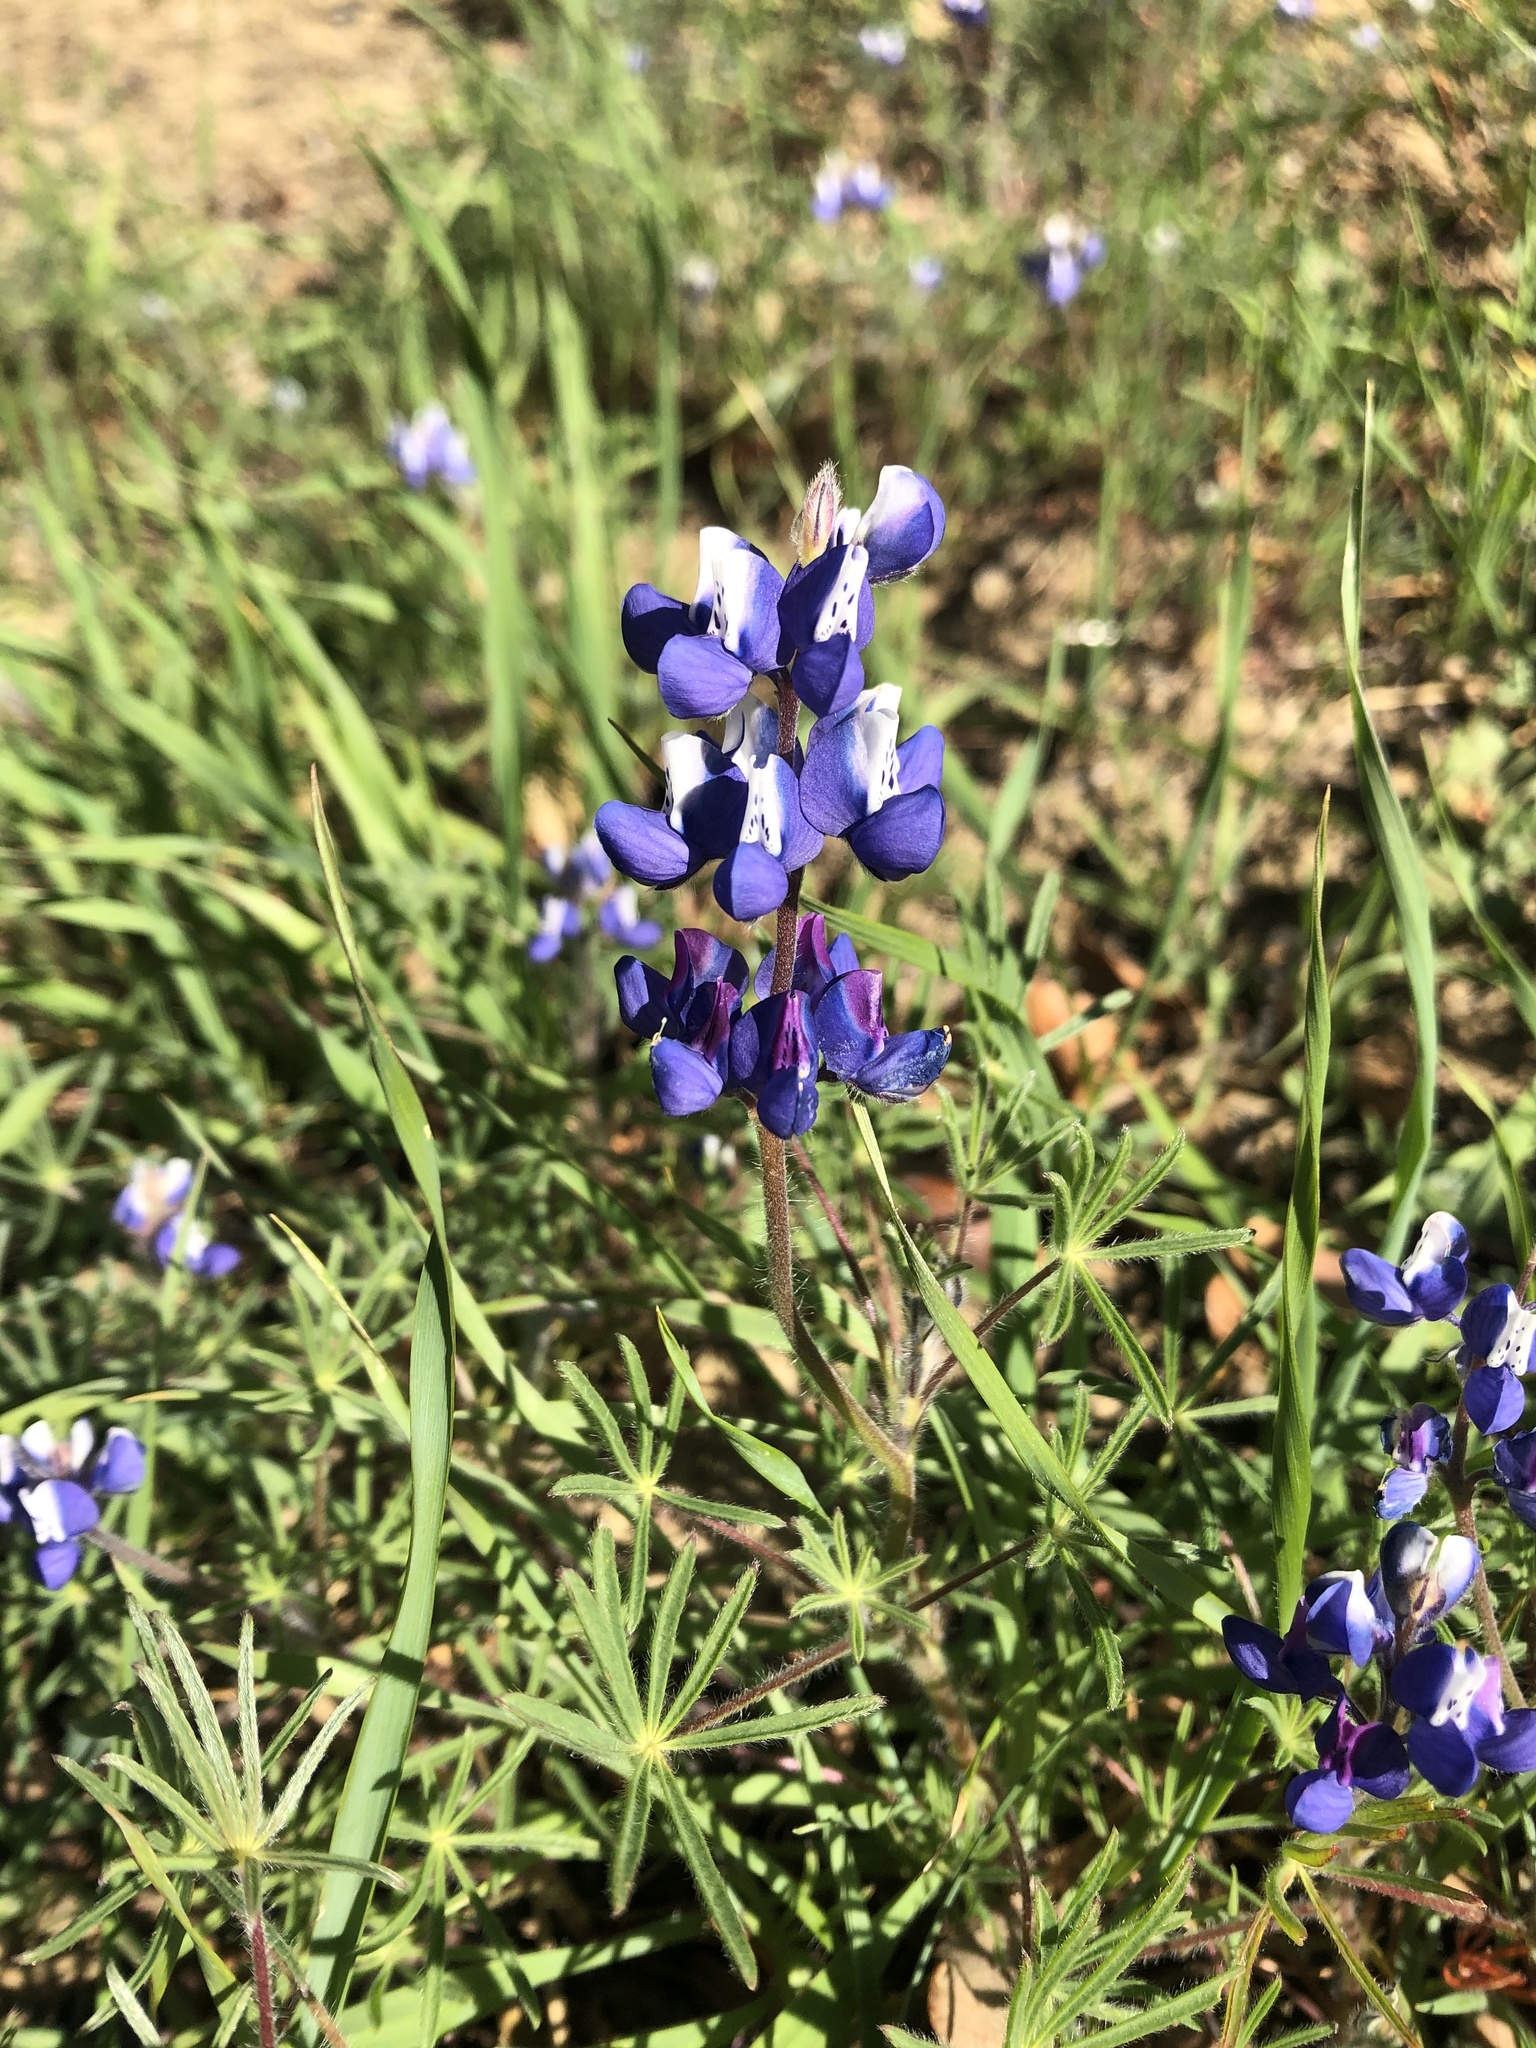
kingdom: Plantae
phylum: Tracheophyta
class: Magnoliopsida
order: Fabales
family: Fabaceae
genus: Lupinus
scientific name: Lupinus nanus
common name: Orean blue lupin
